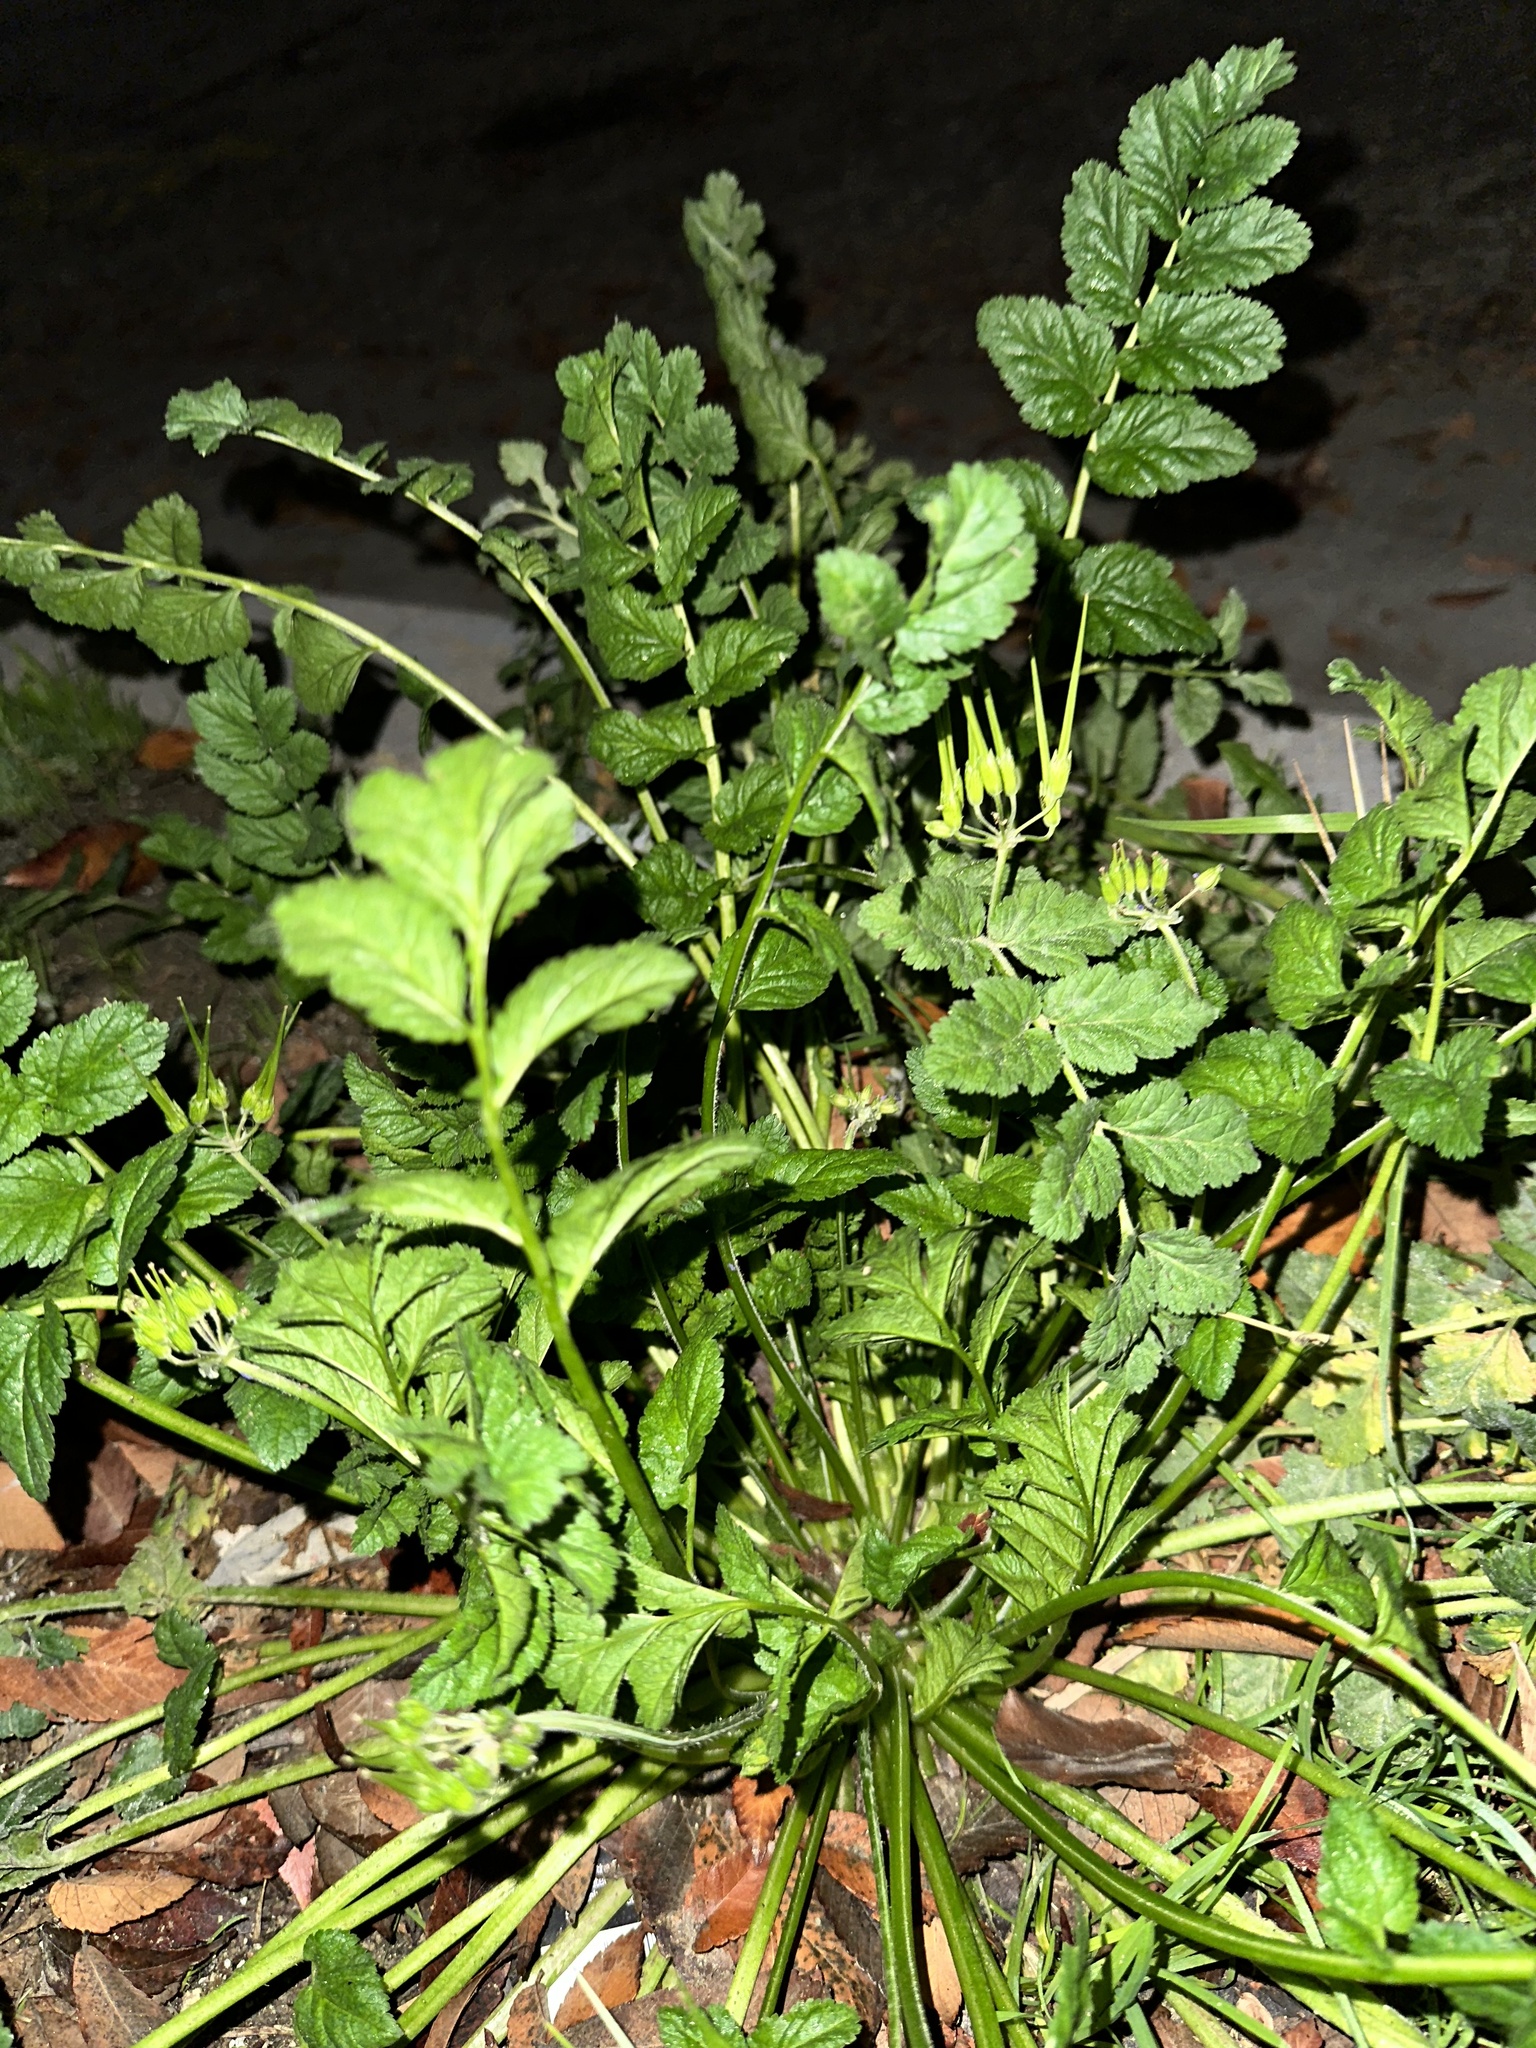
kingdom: Plantae
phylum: Tracheophyta
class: Magnoliopsida
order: Geraniales
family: Geraniaceae
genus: Erodium
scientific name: Erodium moschatum
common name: Musk stork's-bill
